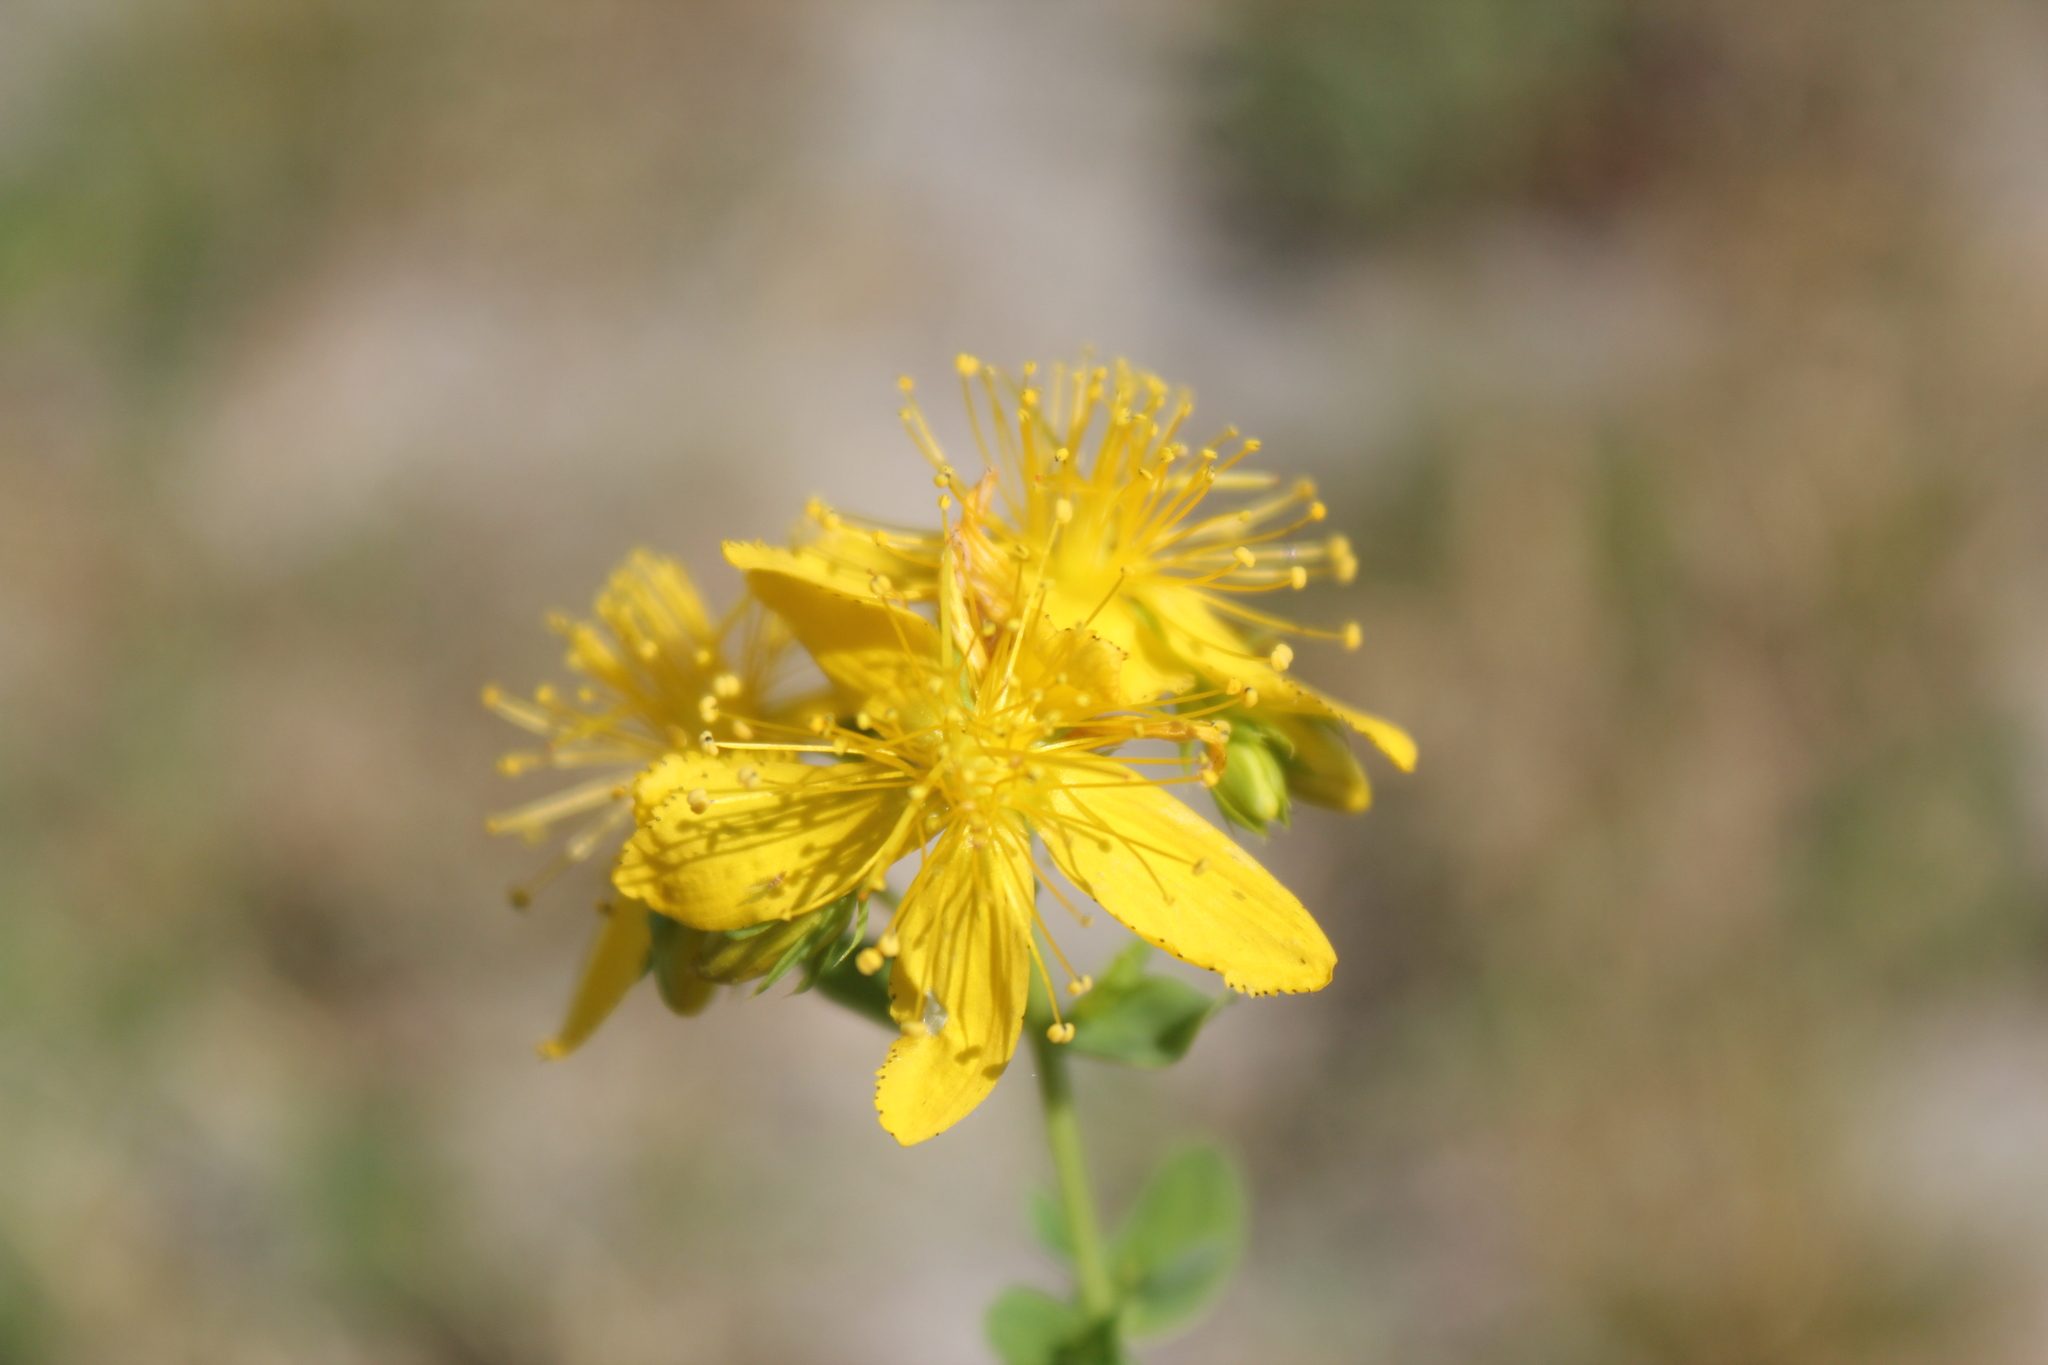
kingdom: Plantae
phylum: Tracheophyta
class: Magnoliopsida
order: Malpighiales
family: Hypericaceae
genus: Hypericum
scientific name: Hypericum perforatum
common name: Common st. johnswort
